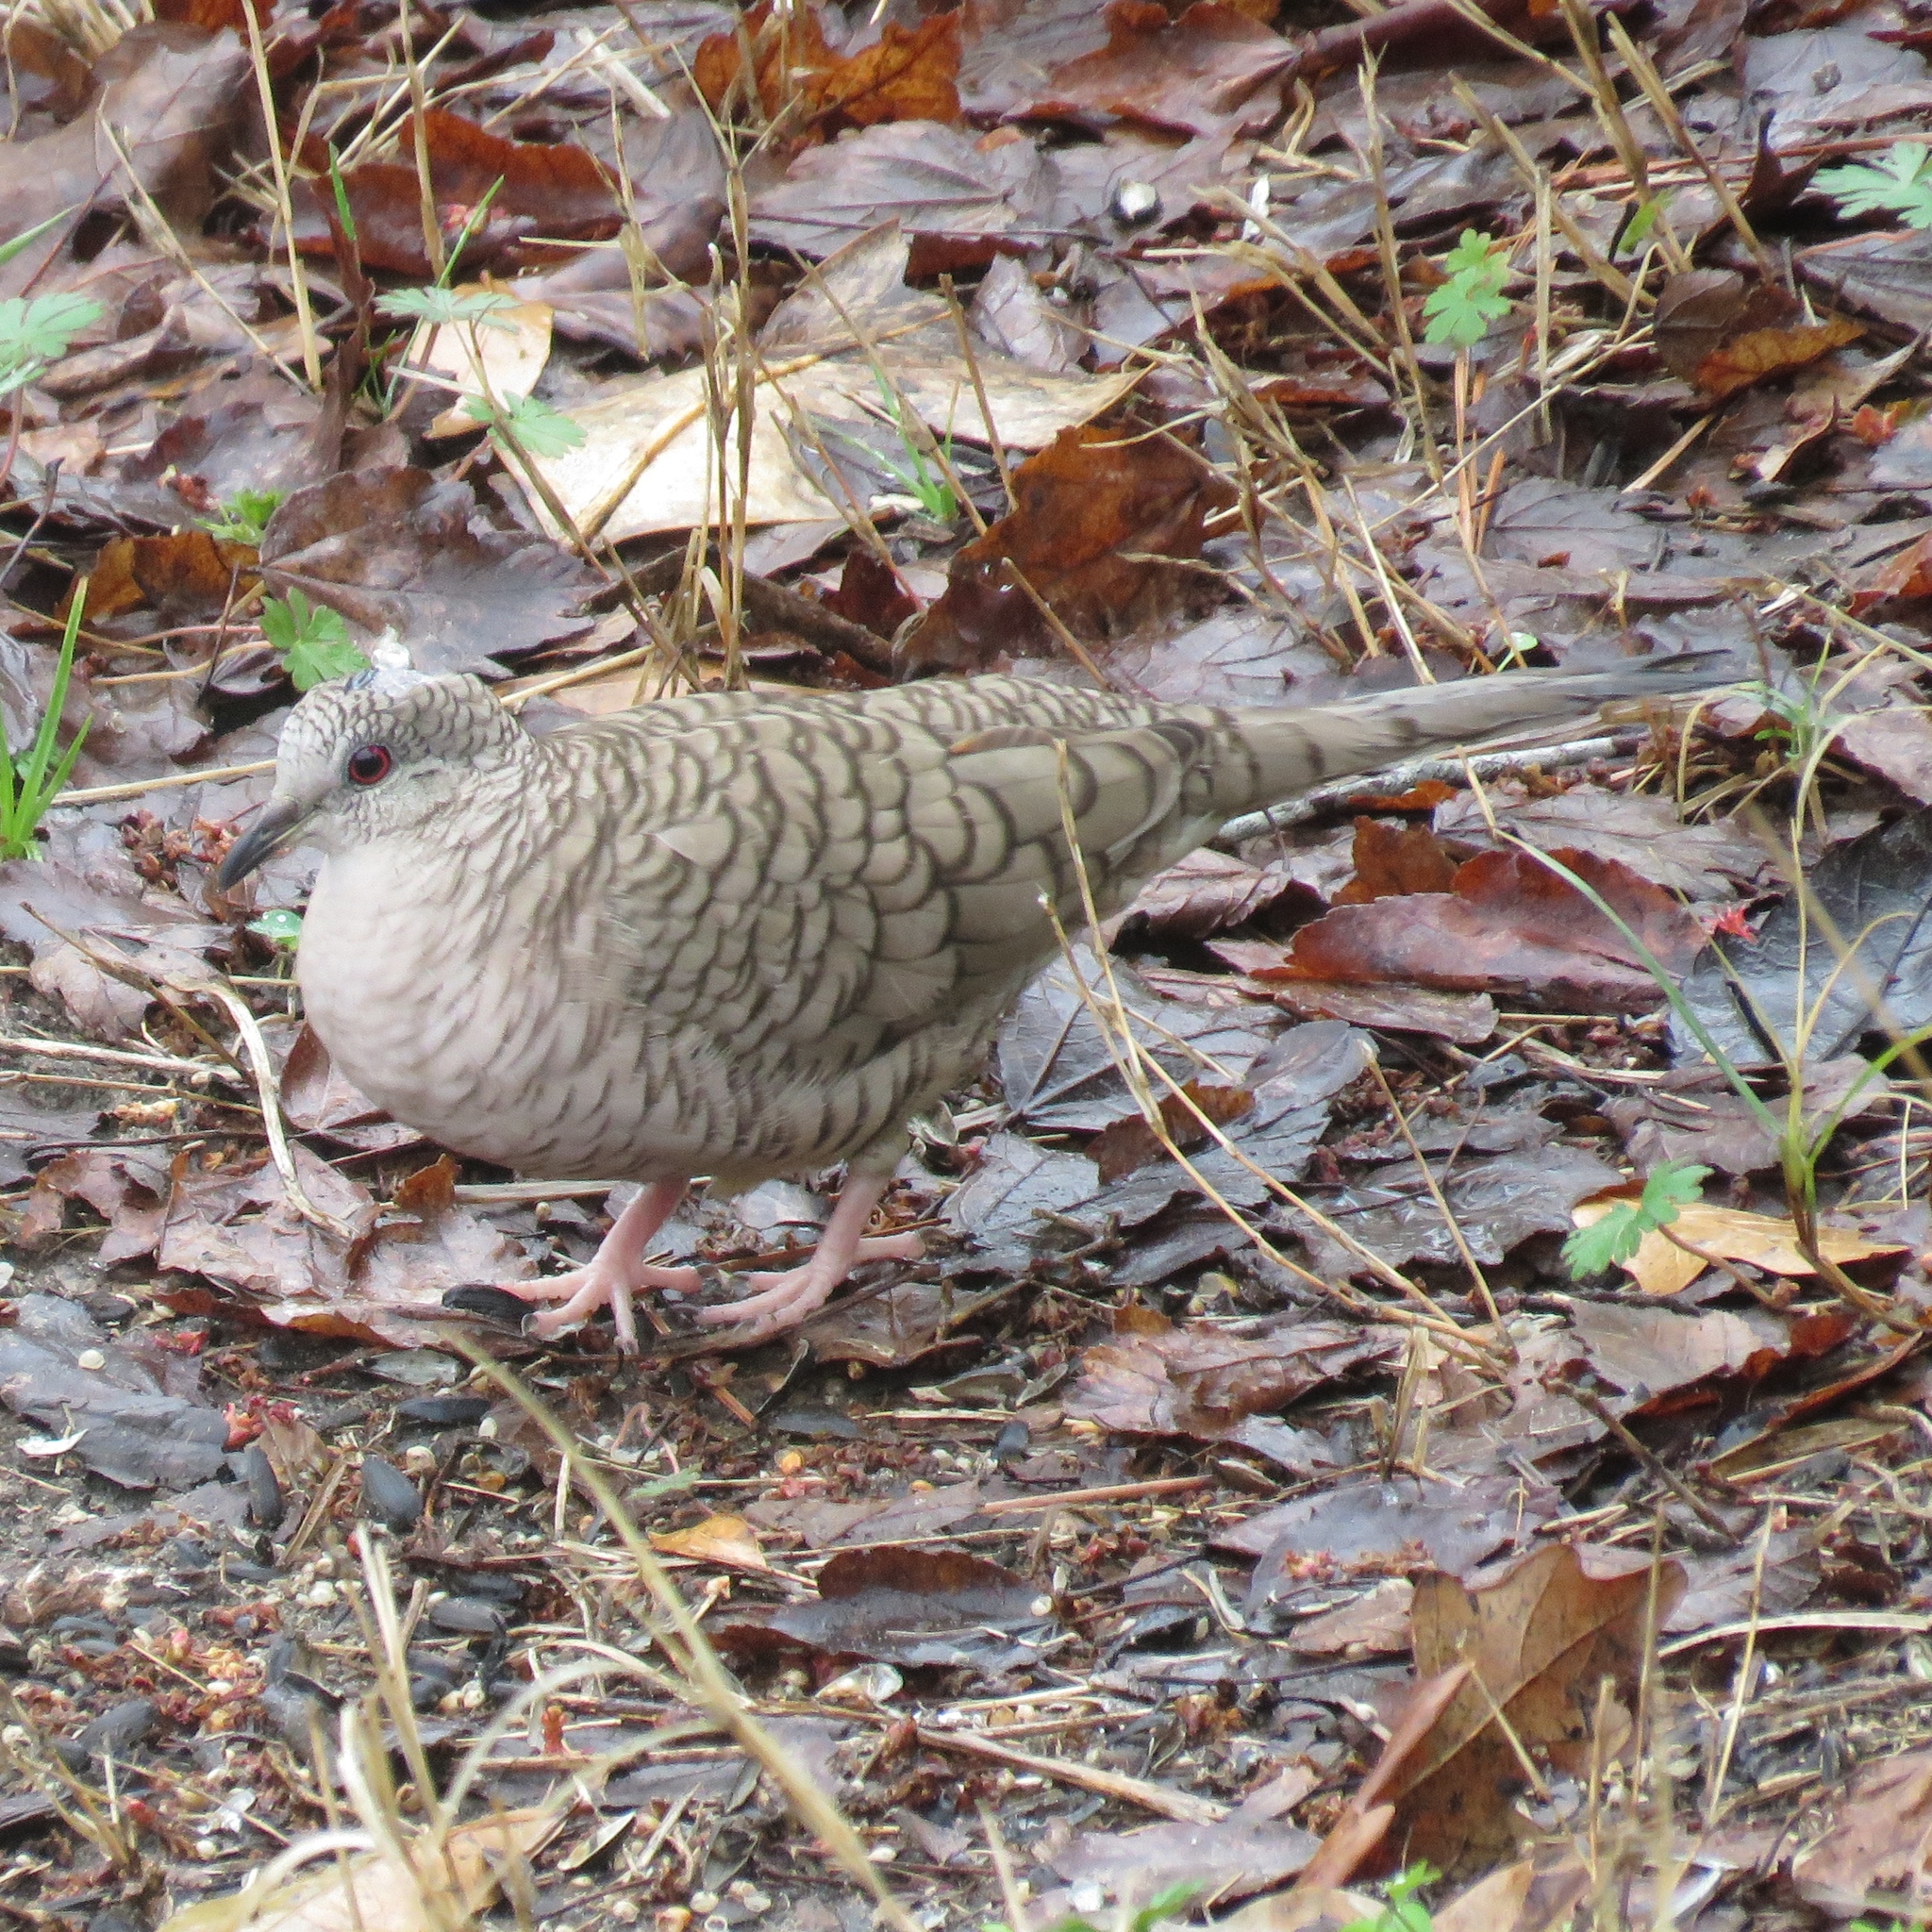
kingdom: Animalia
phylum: Chordata
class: Aves
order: Columbiformes
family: Columbidae
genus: Columbina
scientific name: Columbina inca
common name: Inca dove
